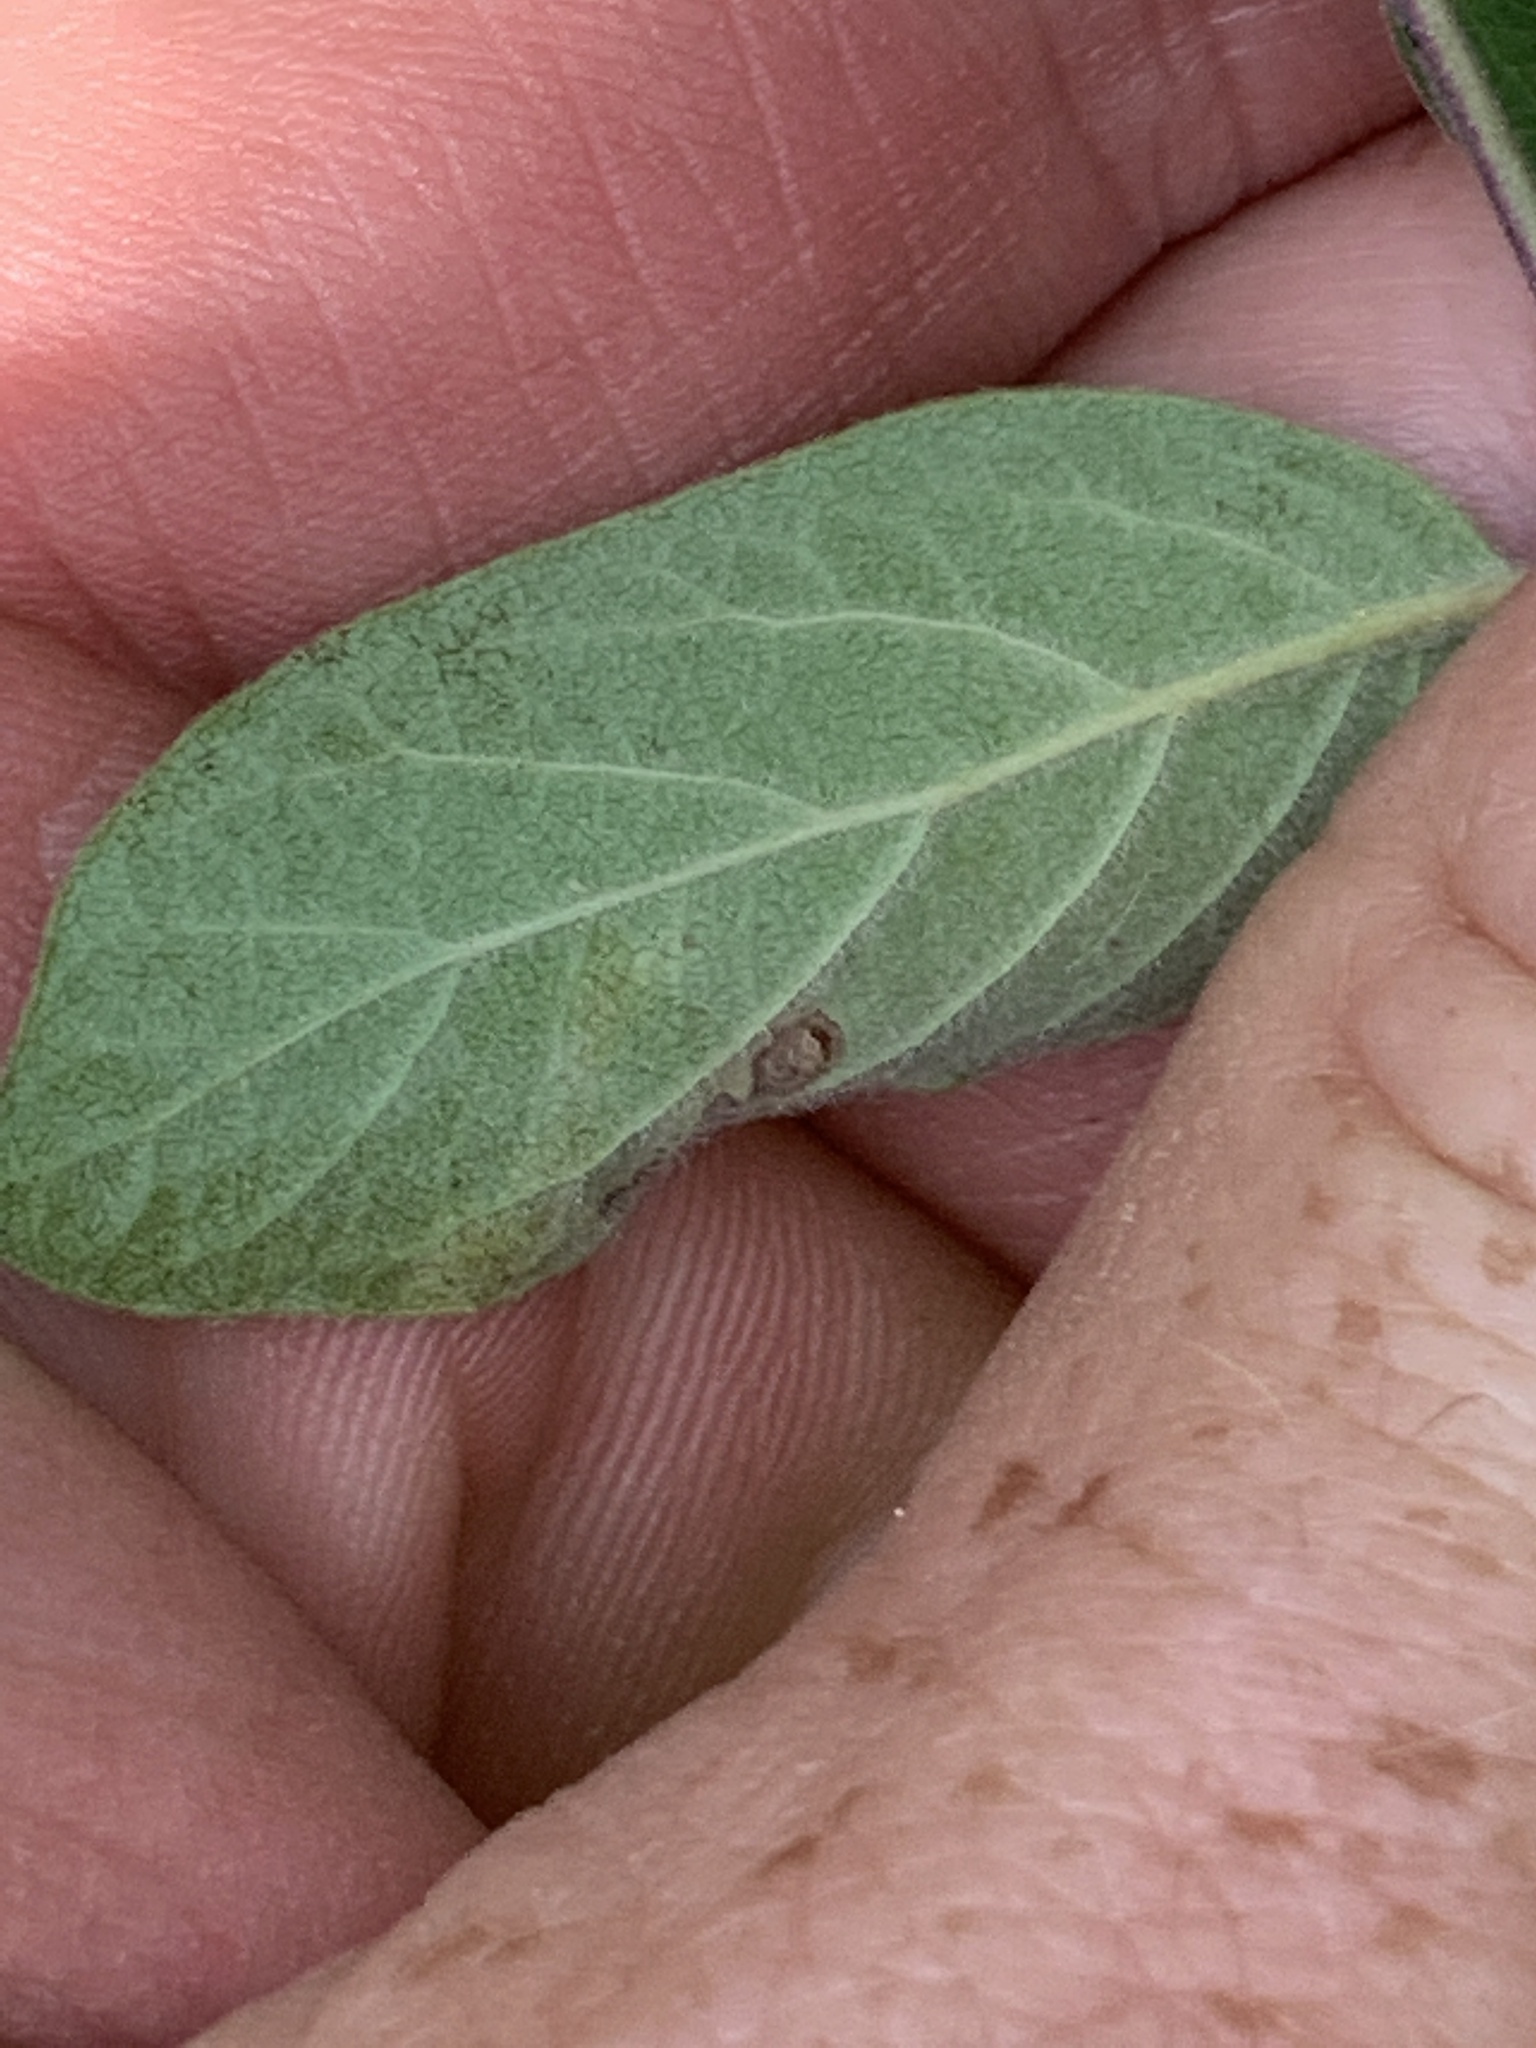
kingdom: Plantae
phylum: Tracheophyta
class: Magnoliopsida
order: Dipsacales
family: Caprifoliaceae
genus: Lonicera
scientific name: Lonicera
